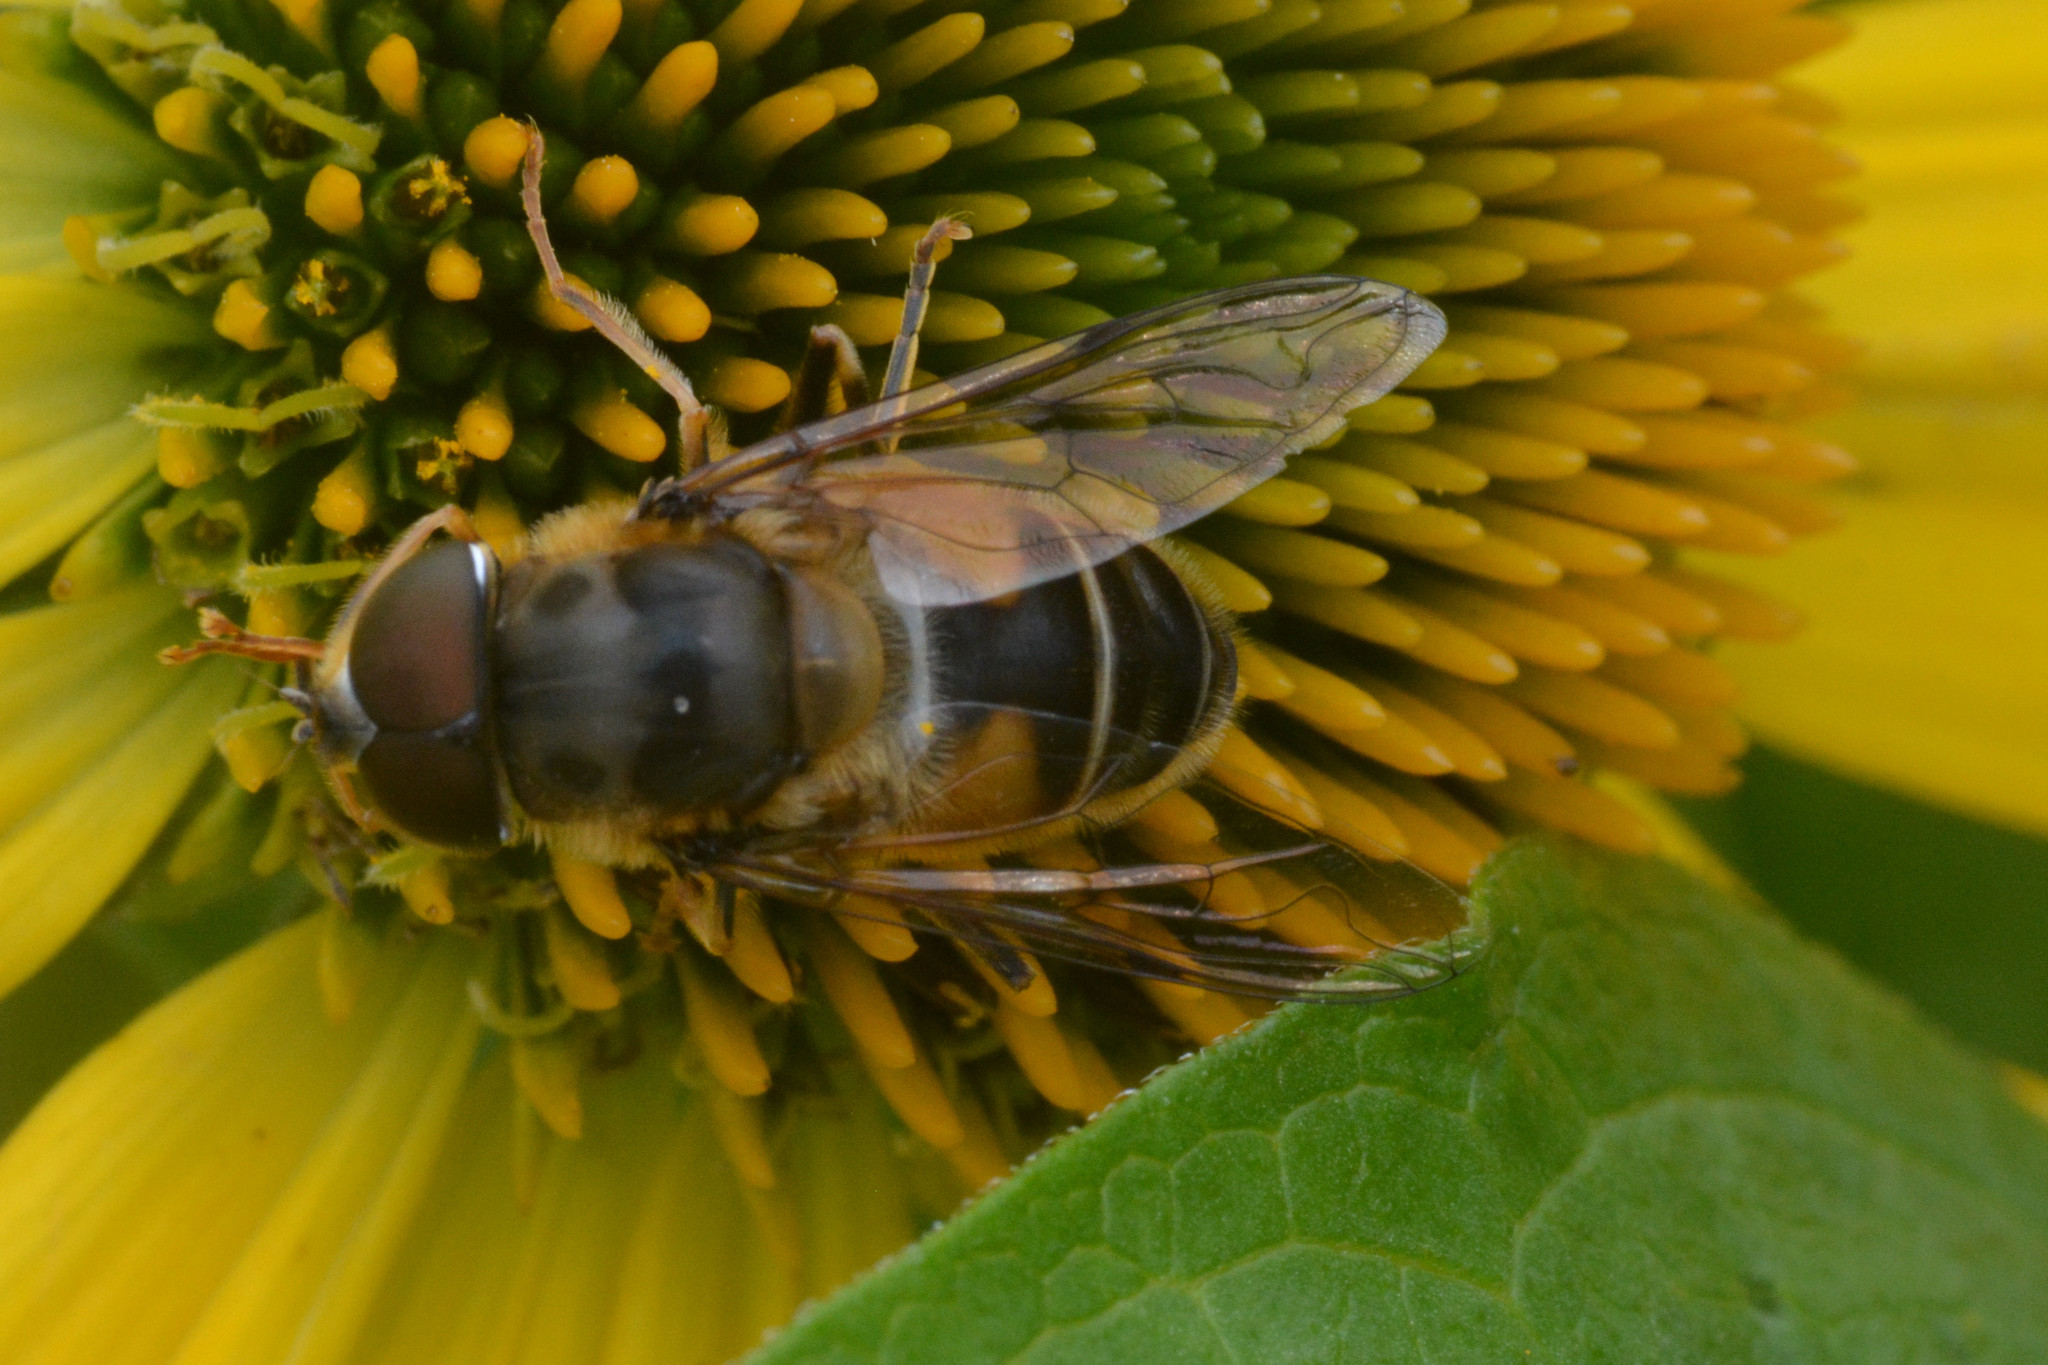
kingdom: Animalia
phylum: Arthropoda
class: Insecta
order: Diptera
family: Syrphidae
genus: Eristalis
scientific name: Eristalis pertinax
